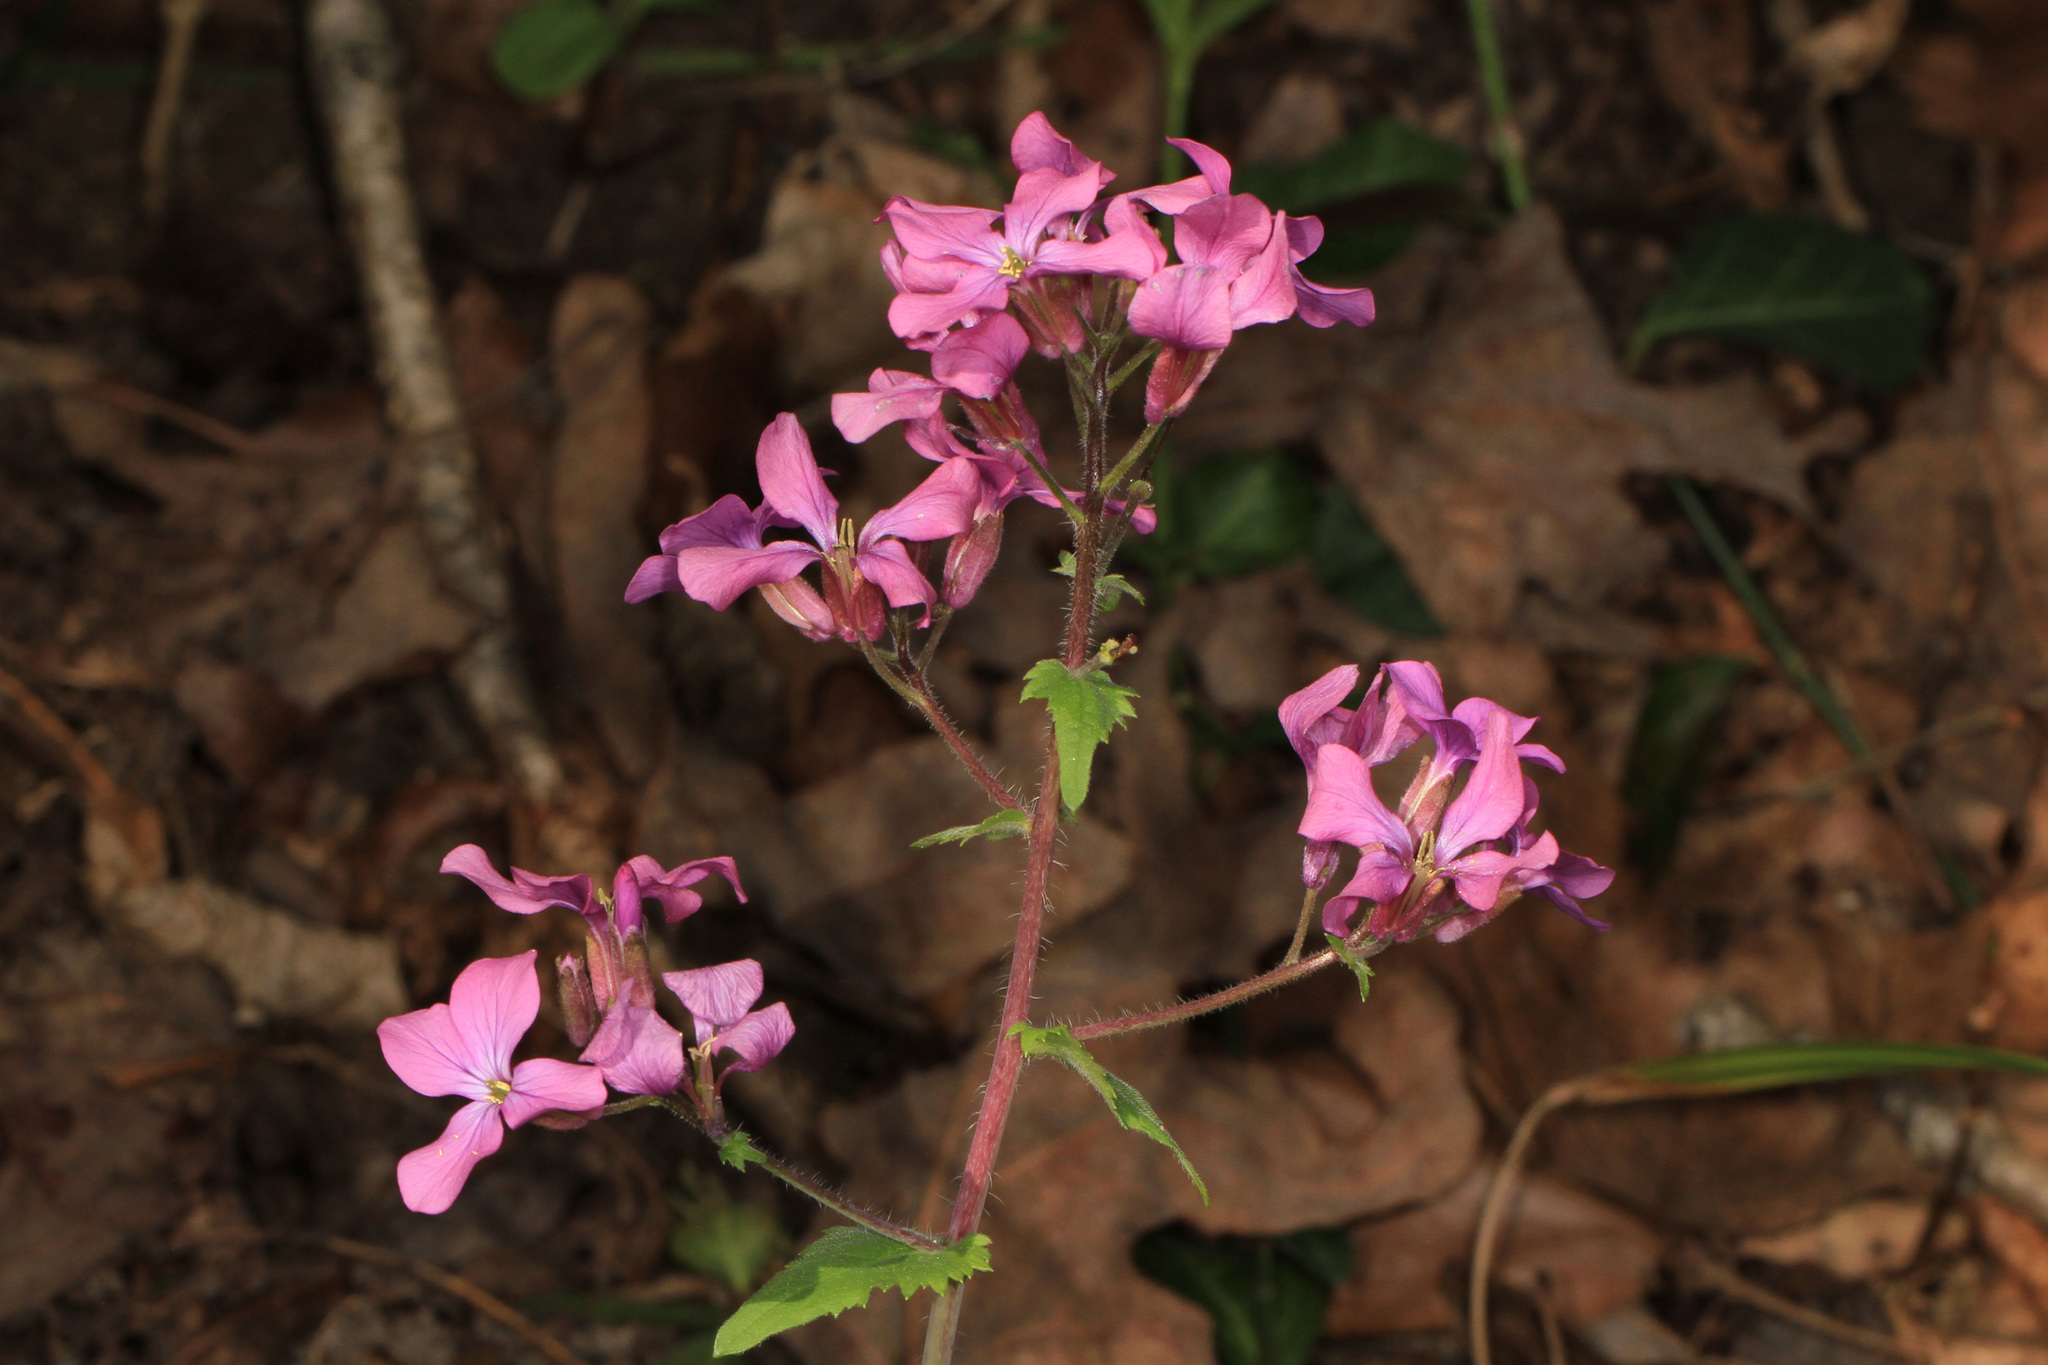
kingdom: Plantae
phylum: Tracheophyta
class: Magnoliopsida
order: Brassicales
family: Brassicaceae
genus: Lunaria
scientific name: Lunaria annua
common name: Honesty
